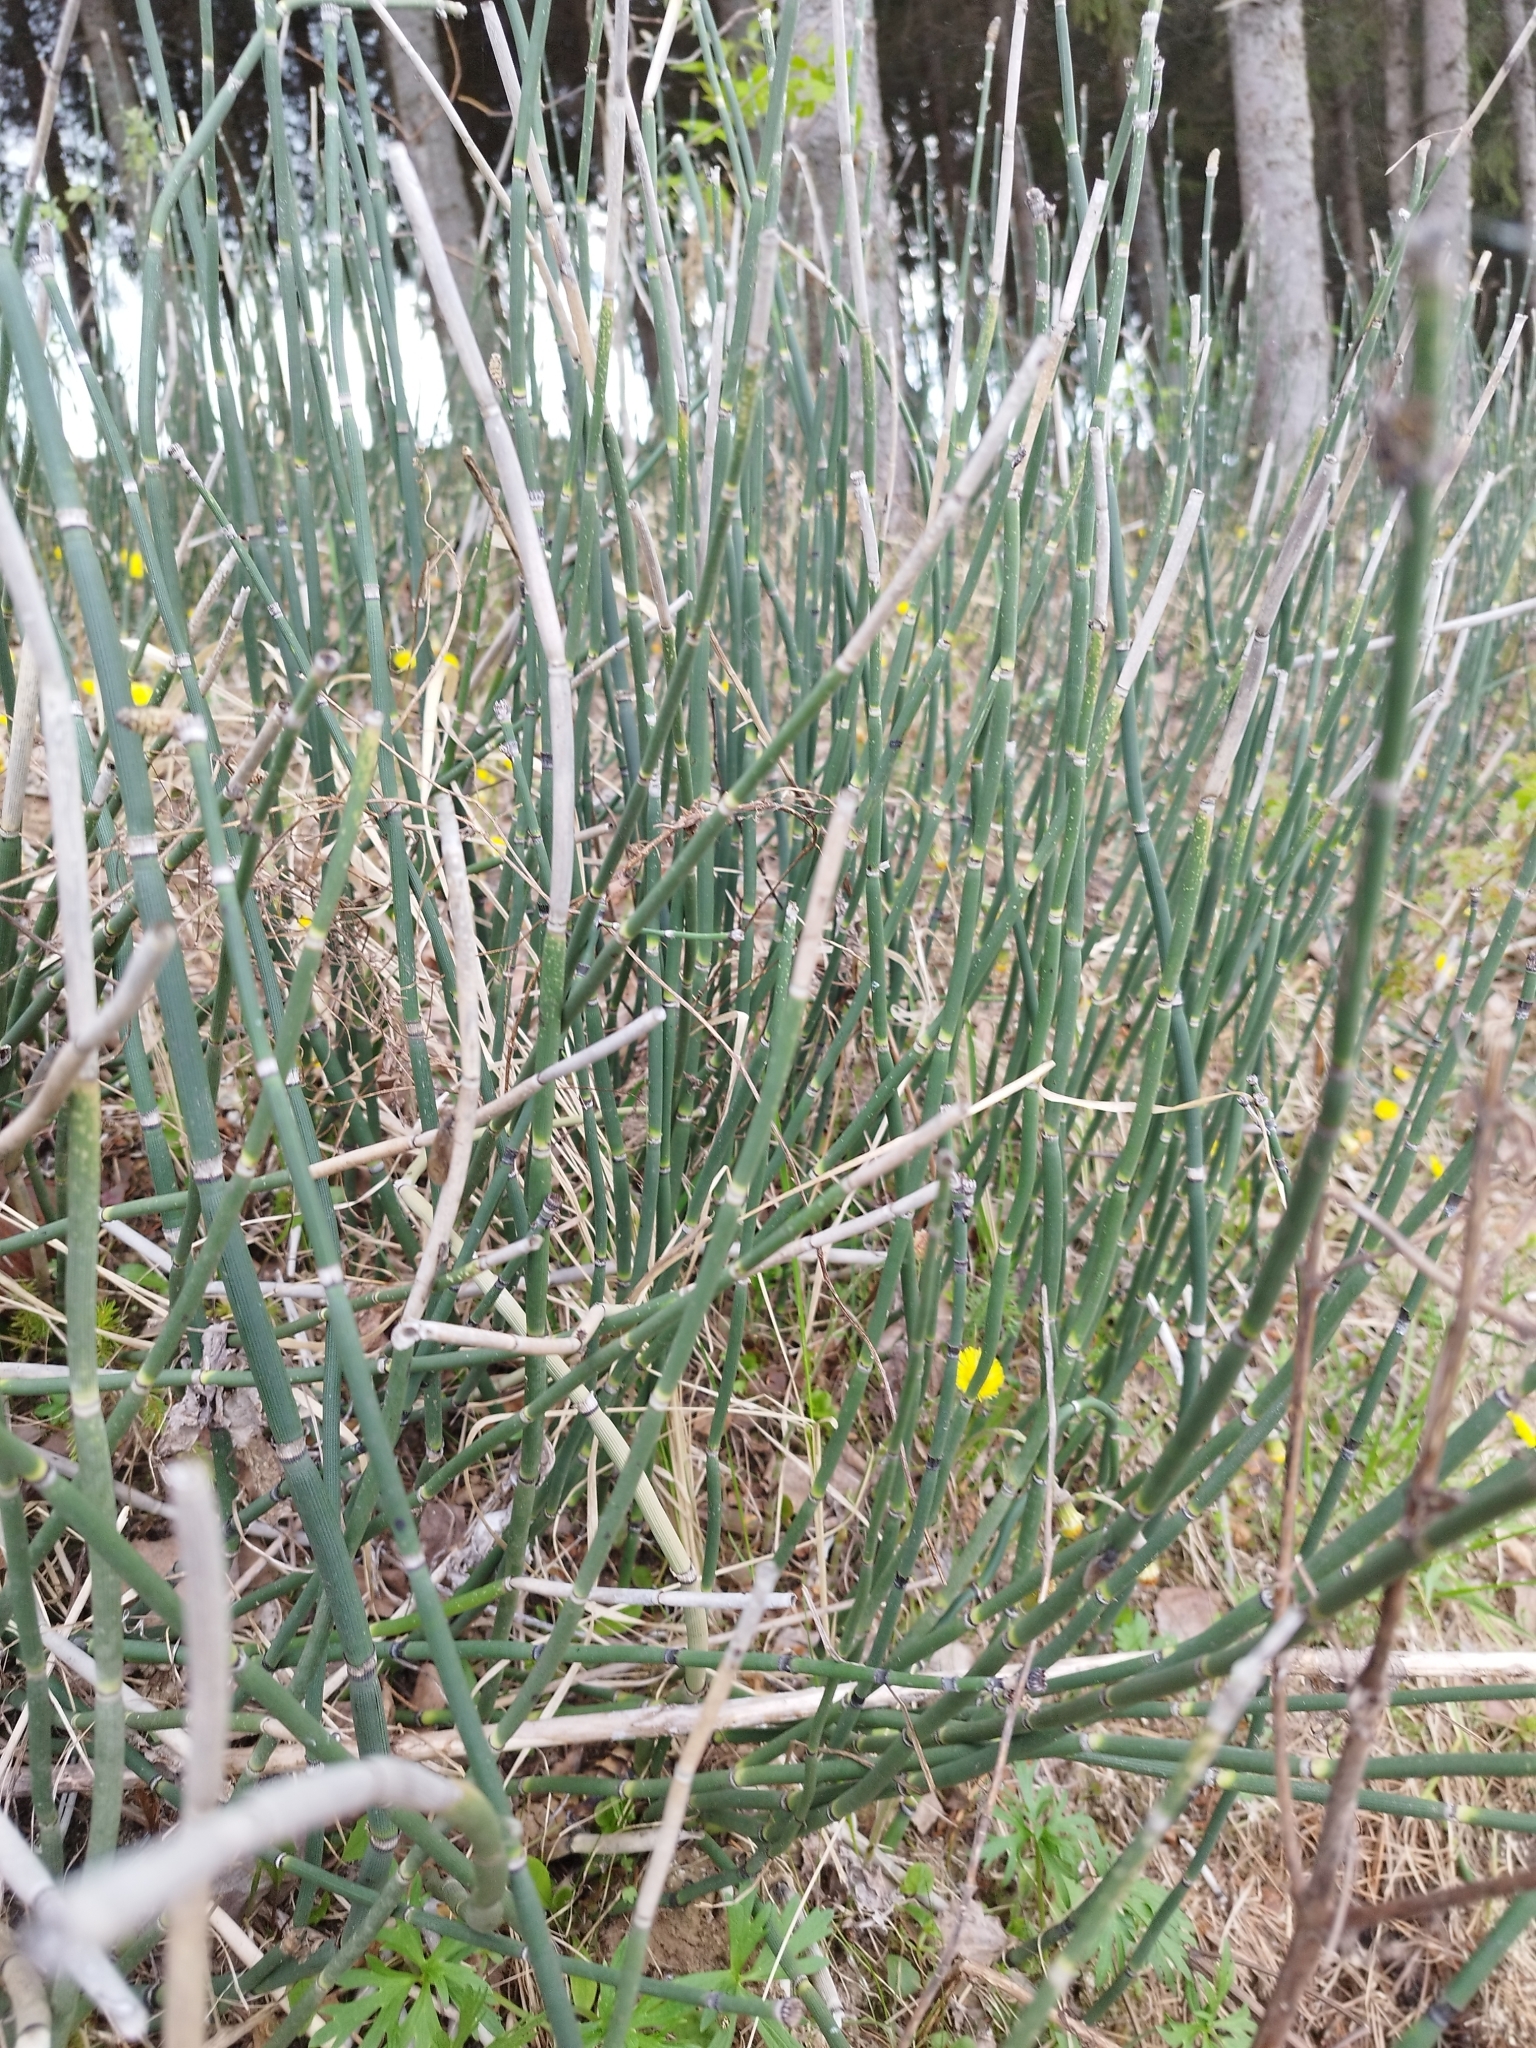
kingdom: Plantae
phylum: Tracheophyta
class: Polypodiopsida
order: Equisetales
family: Equisetaceae
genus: Equisetum
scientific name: Equisetum hyemale
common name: Rough horsetail
